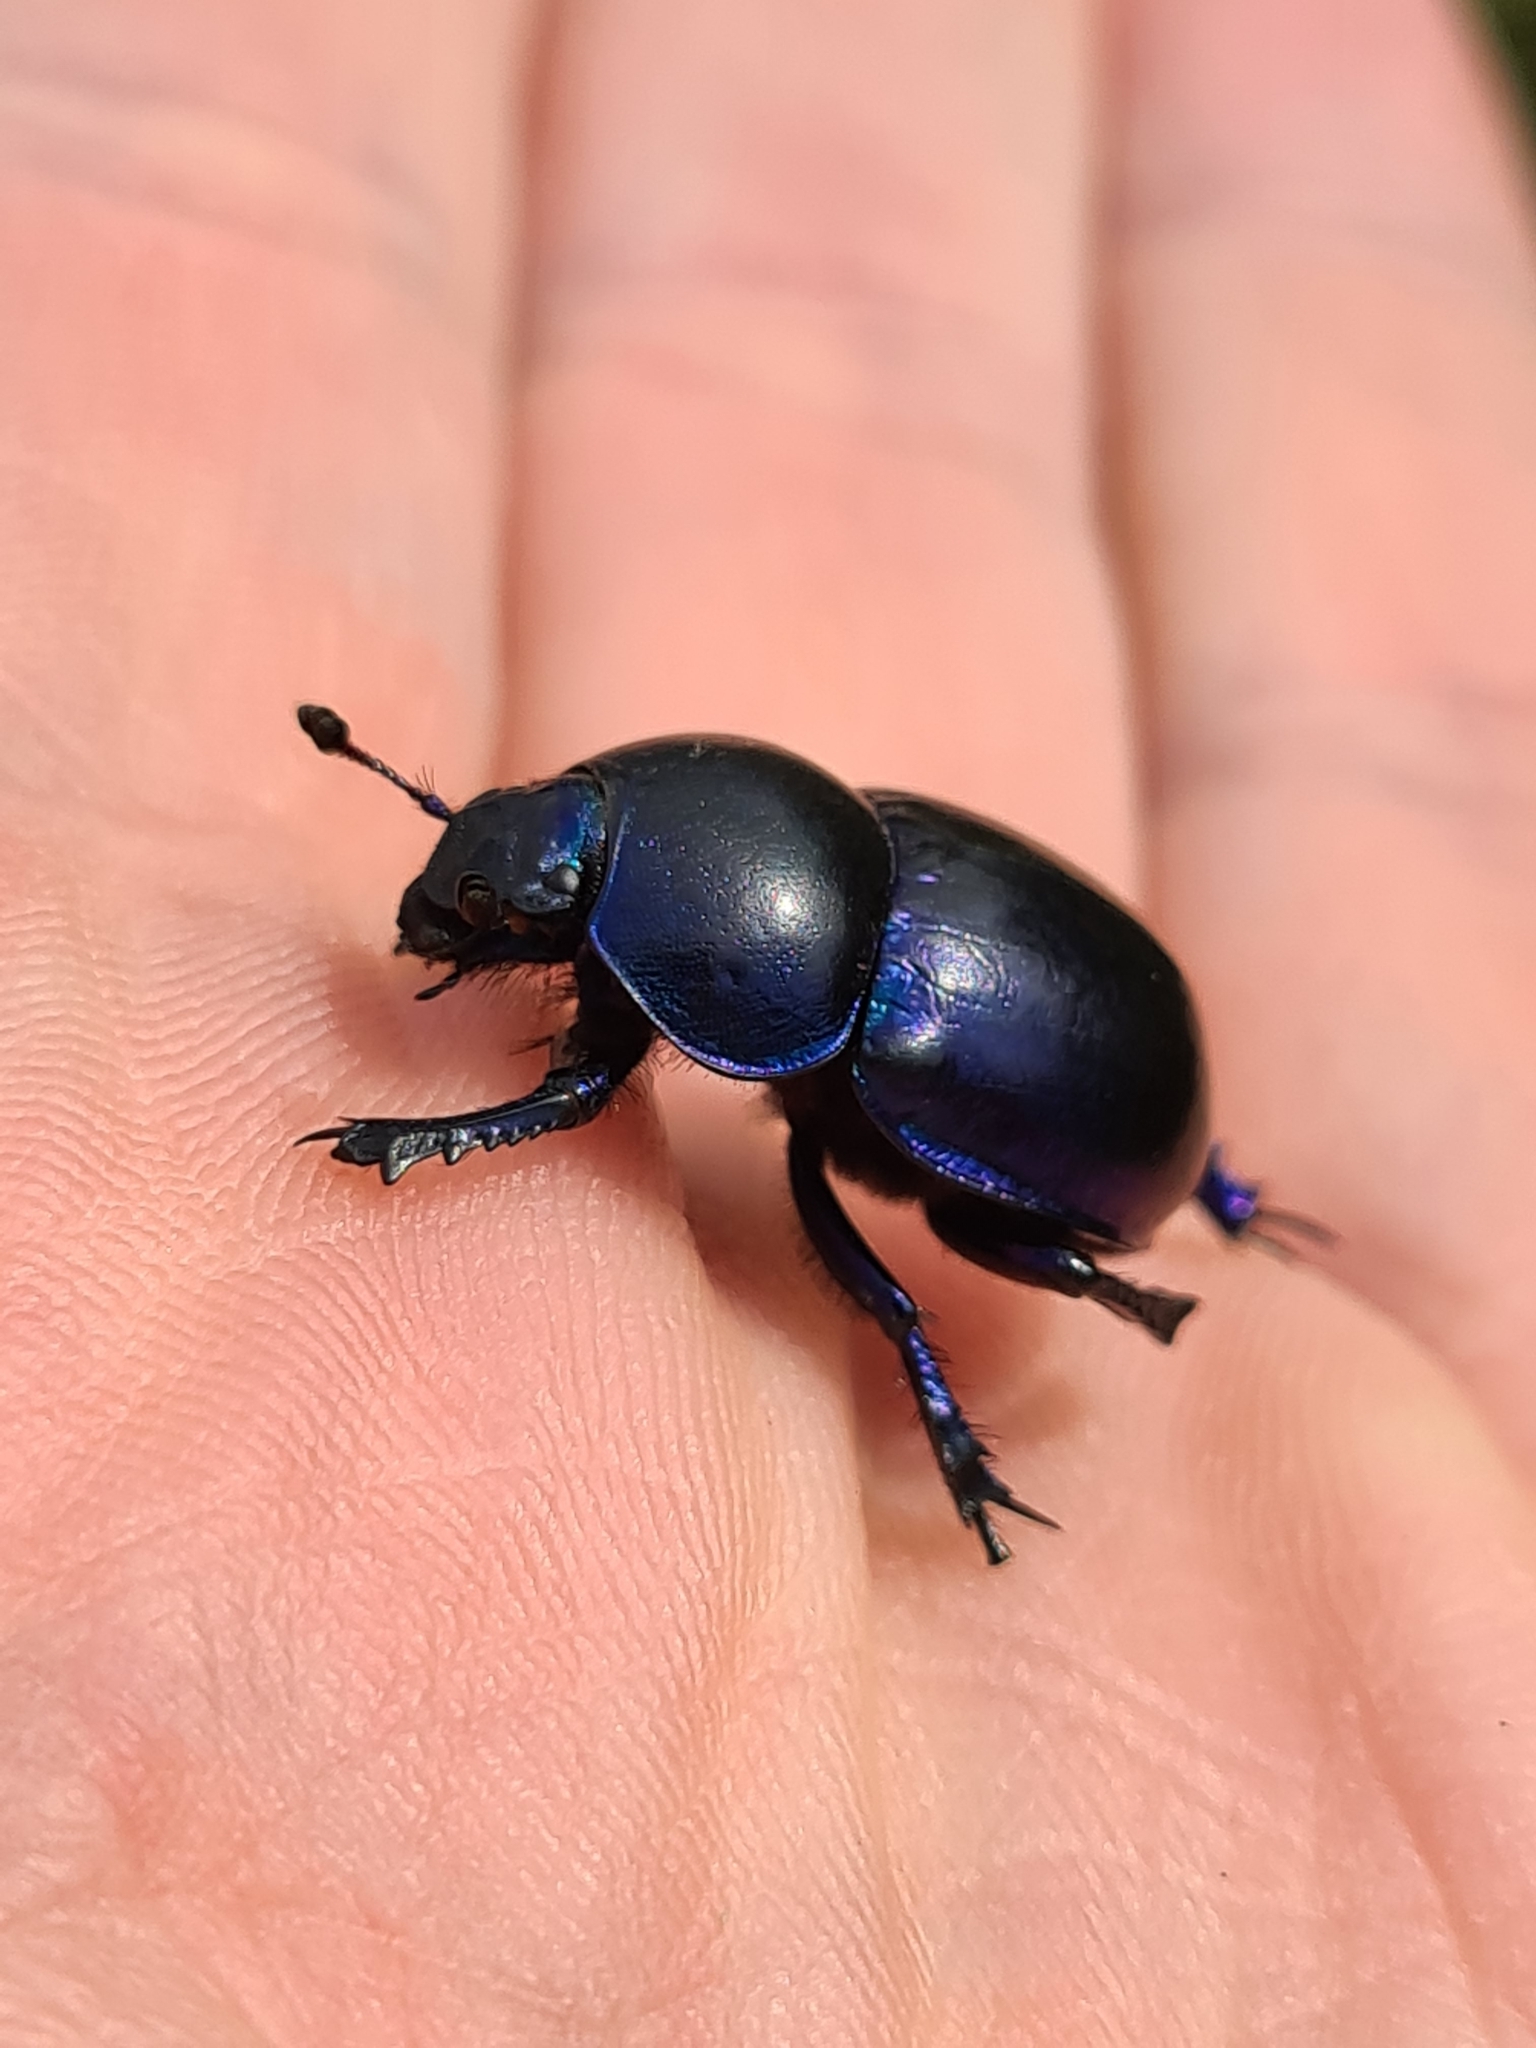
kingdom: Animalia
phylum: Arthropoda
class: Insecta
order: Coleoptera
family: Geotrupidae
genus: Trypocopris
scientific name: Trypocopris vernalis
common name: Spring dumbledor
